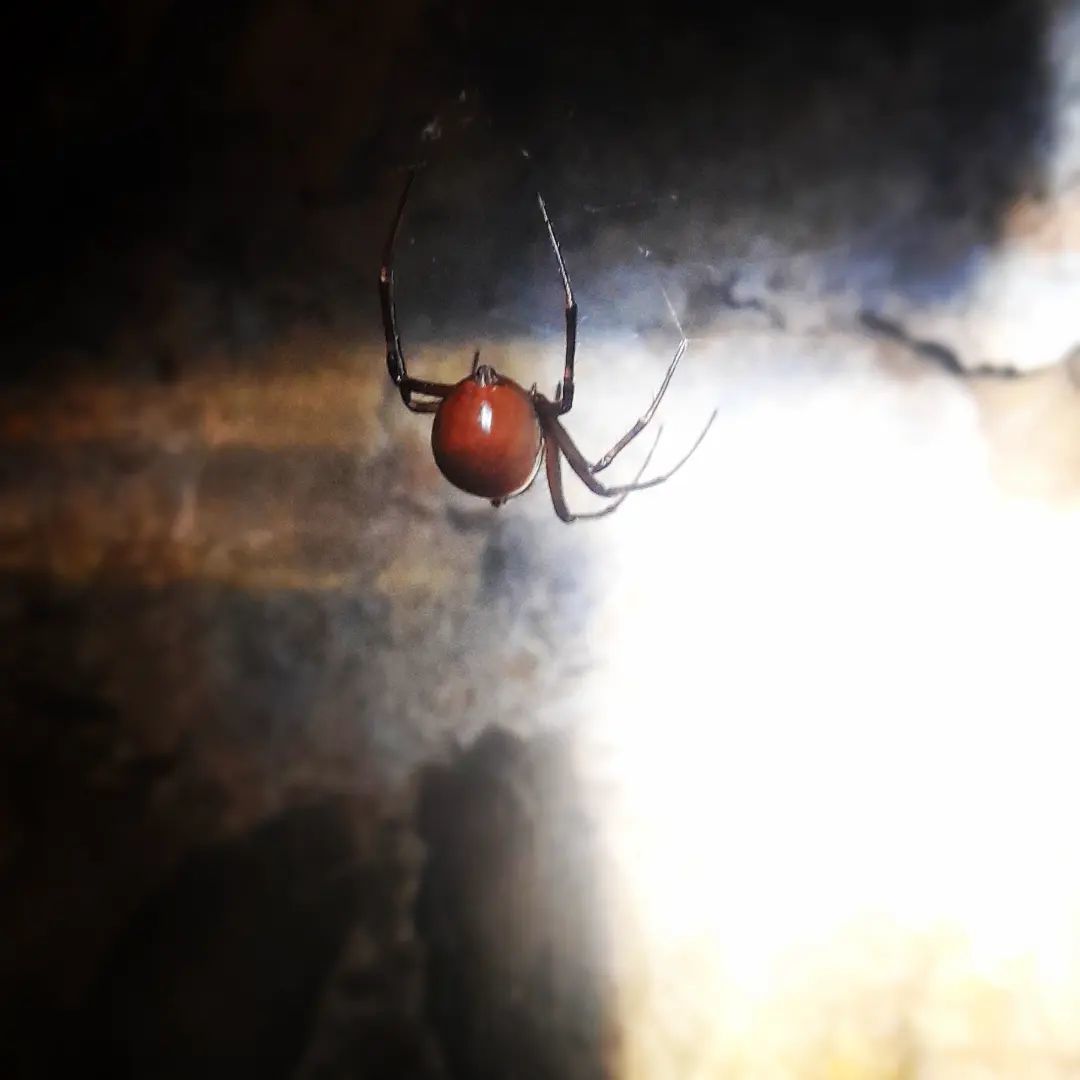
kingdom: Animalia
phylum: Arthropoda
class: Arachnida
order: Araneae
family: Tetragnathidae
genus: Meta
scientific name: Meta bourneti
